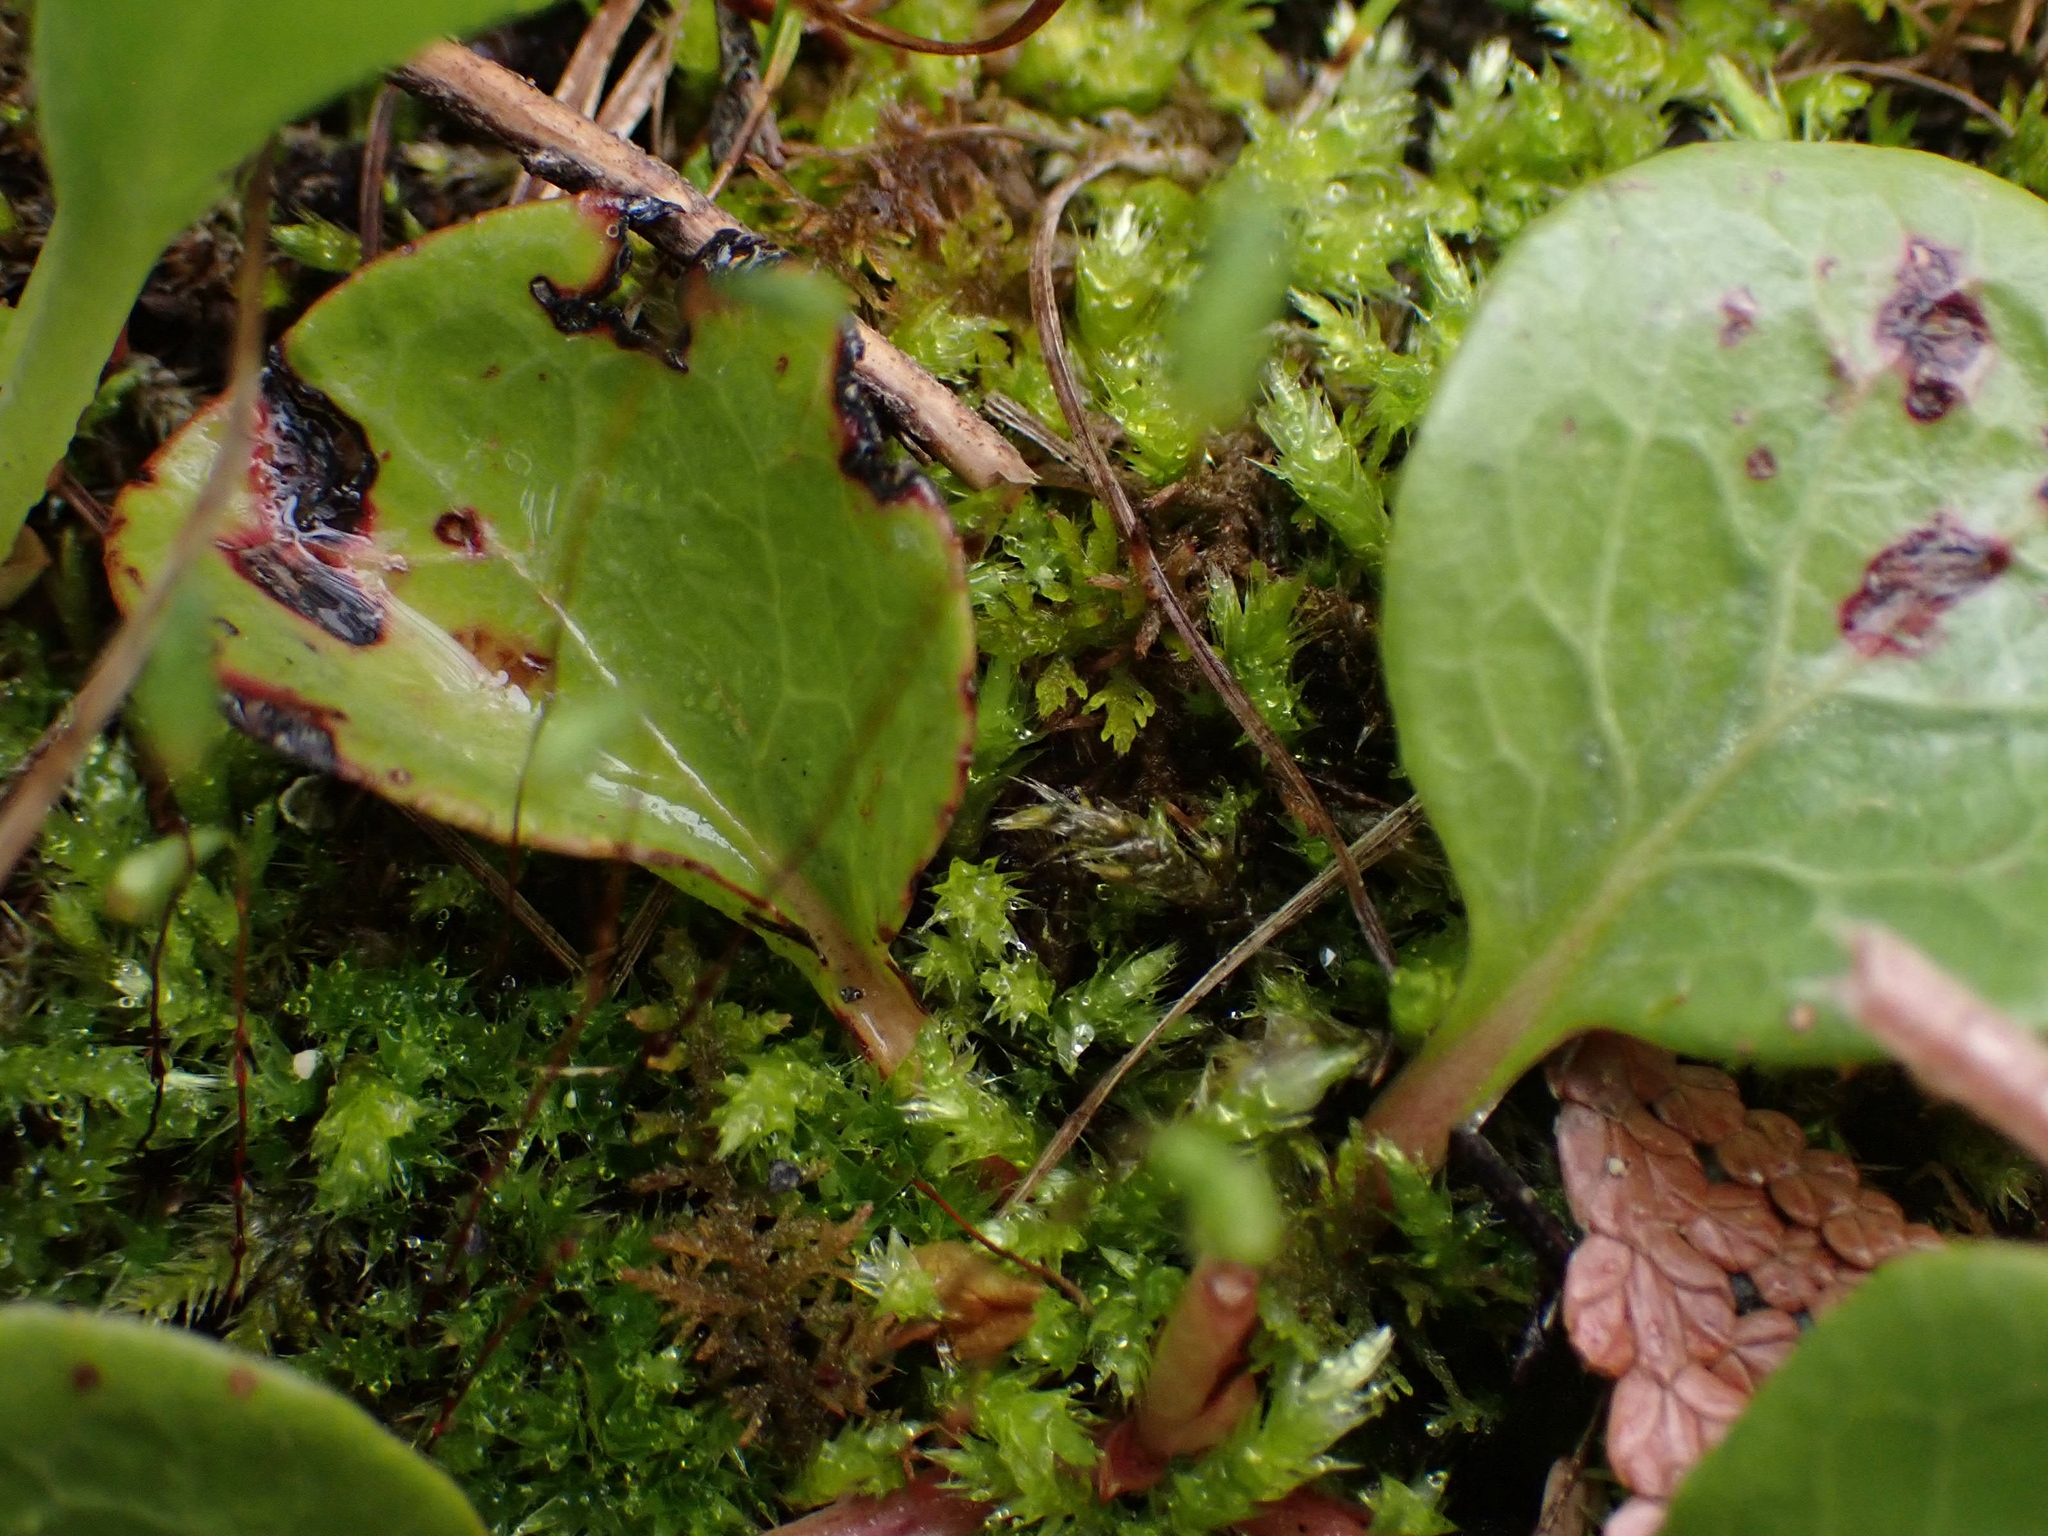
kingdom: Plantae
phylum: Tracheophyta
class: Magnoliopsida
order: Ericales
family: Ericaceae
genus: Pyrola
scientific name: Pyrola asarifolia
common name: Bog wintergreen
